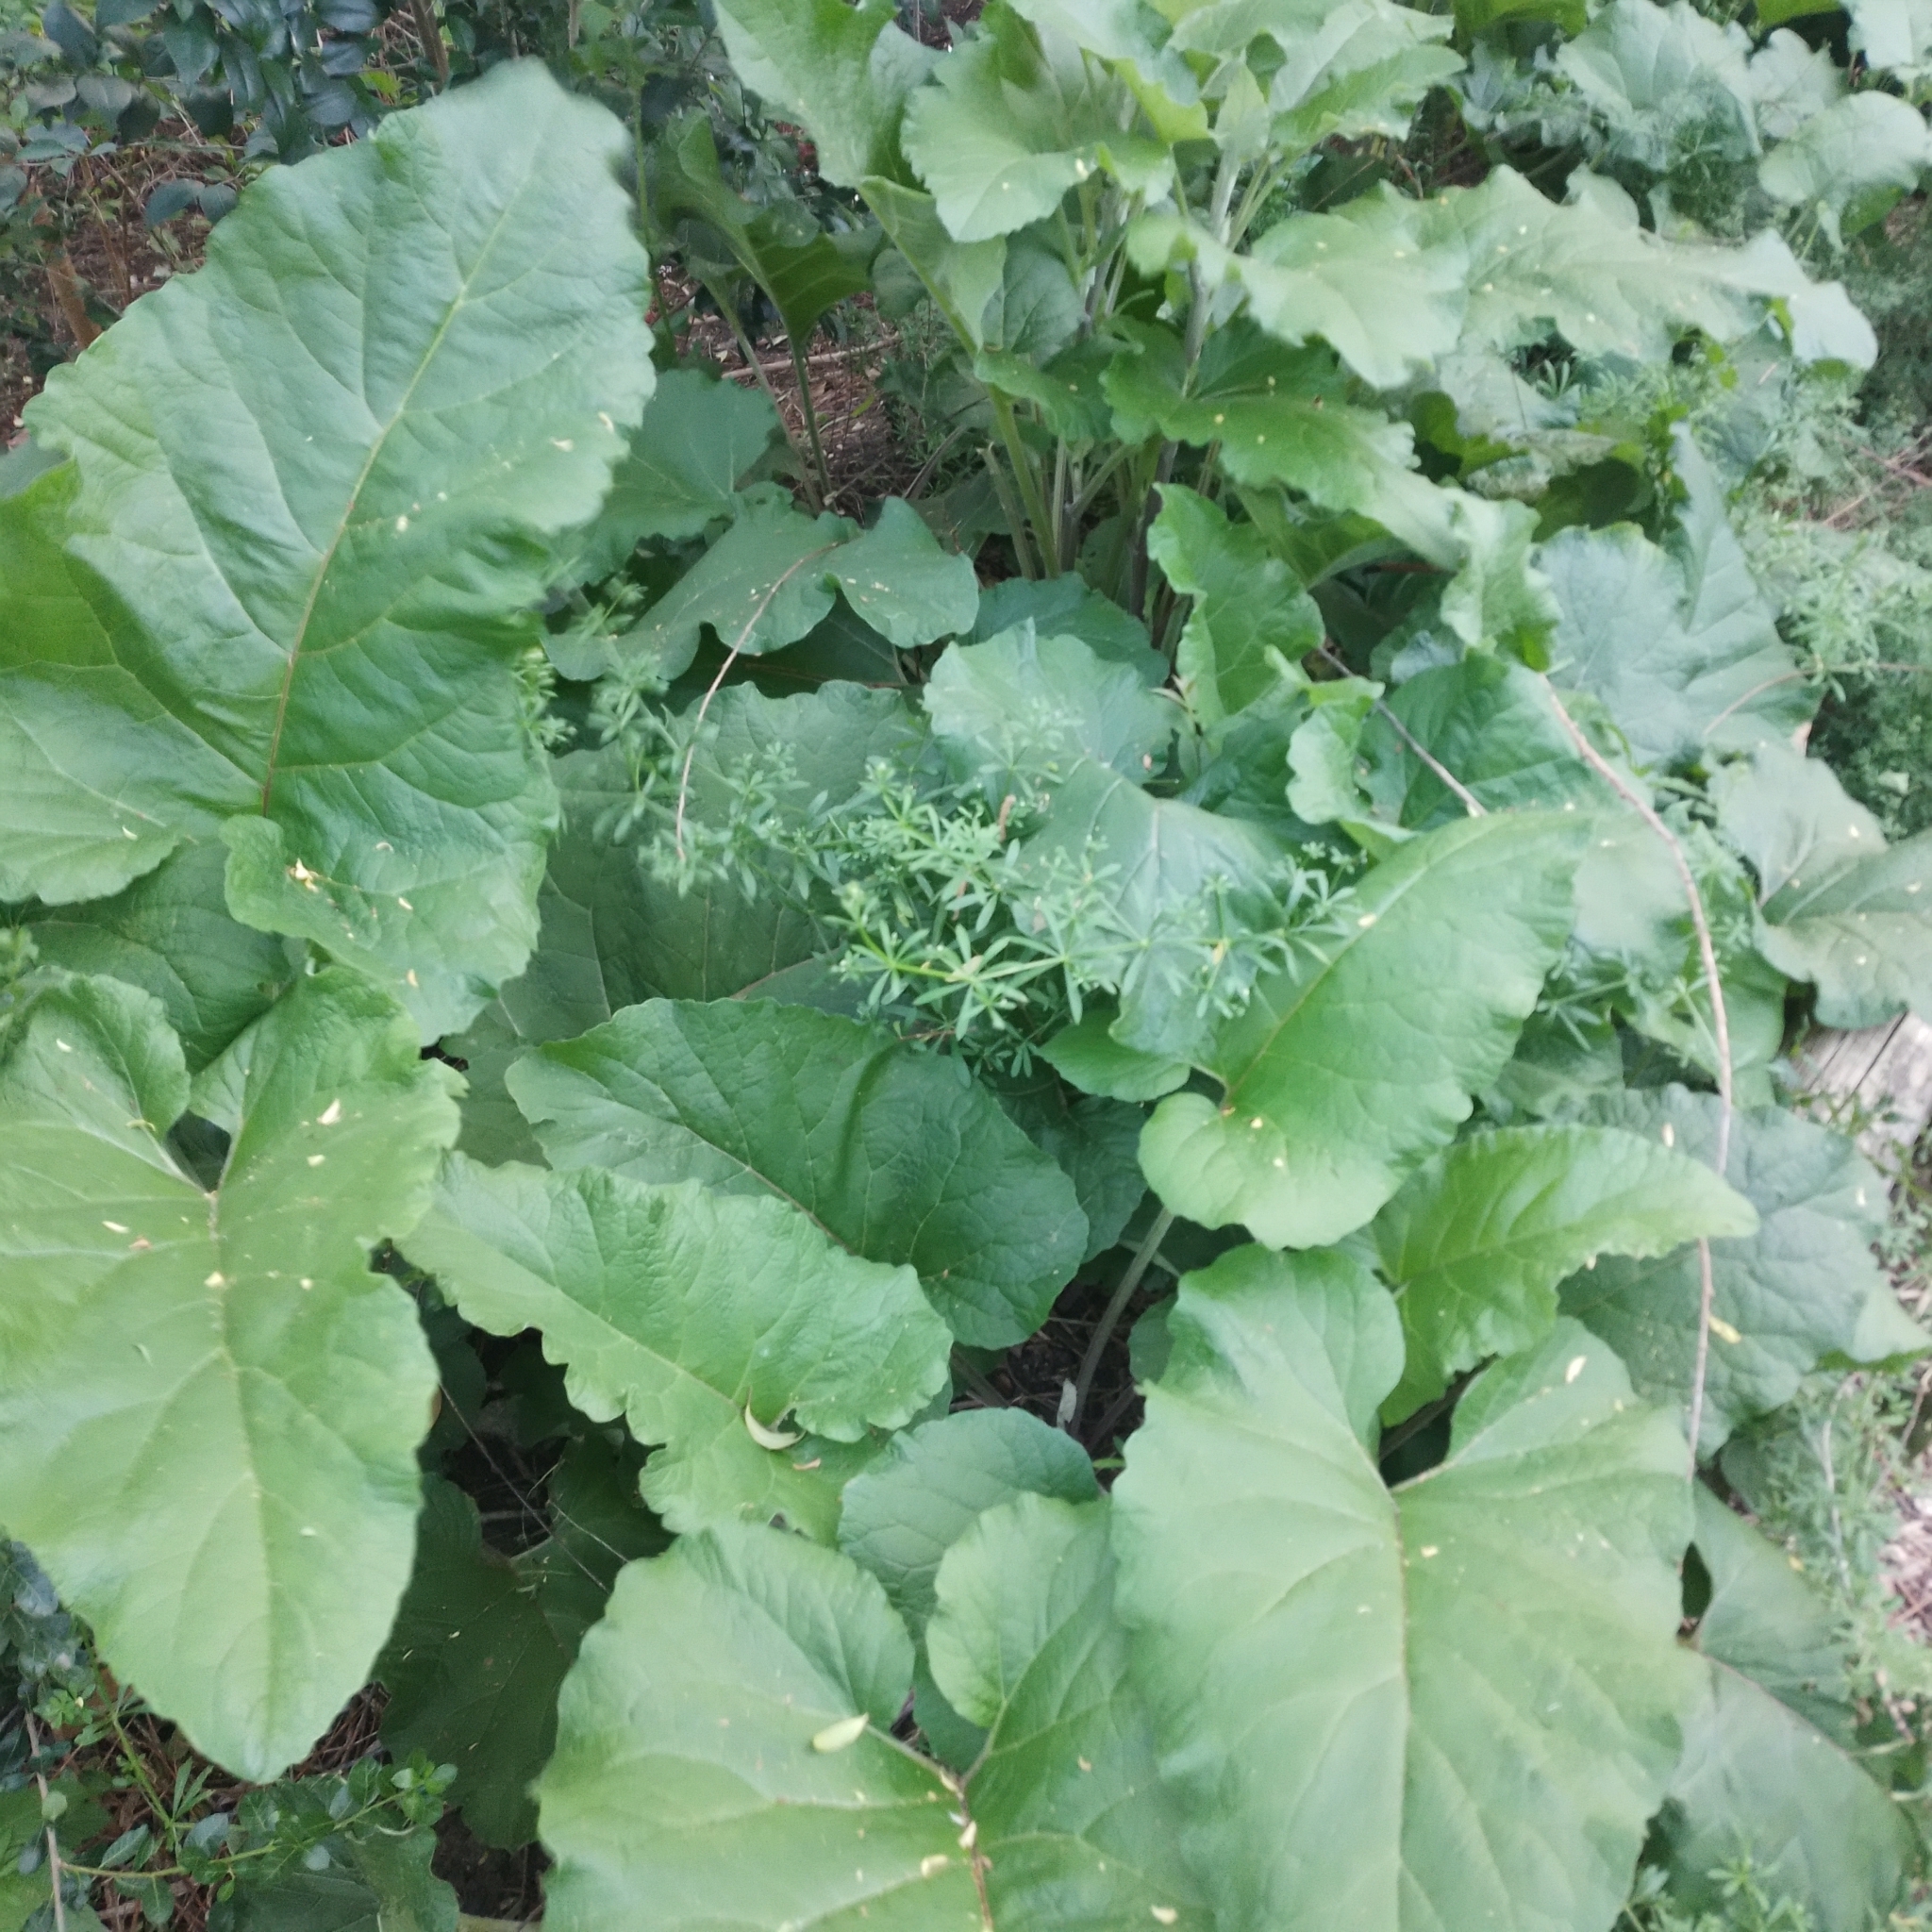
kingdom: Plantae
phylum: Tracheophyta
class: Magnoliopsida
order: Asterales
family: Asteraceae
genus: Arctium
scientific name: Arctium minus
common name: Lesser burdock
